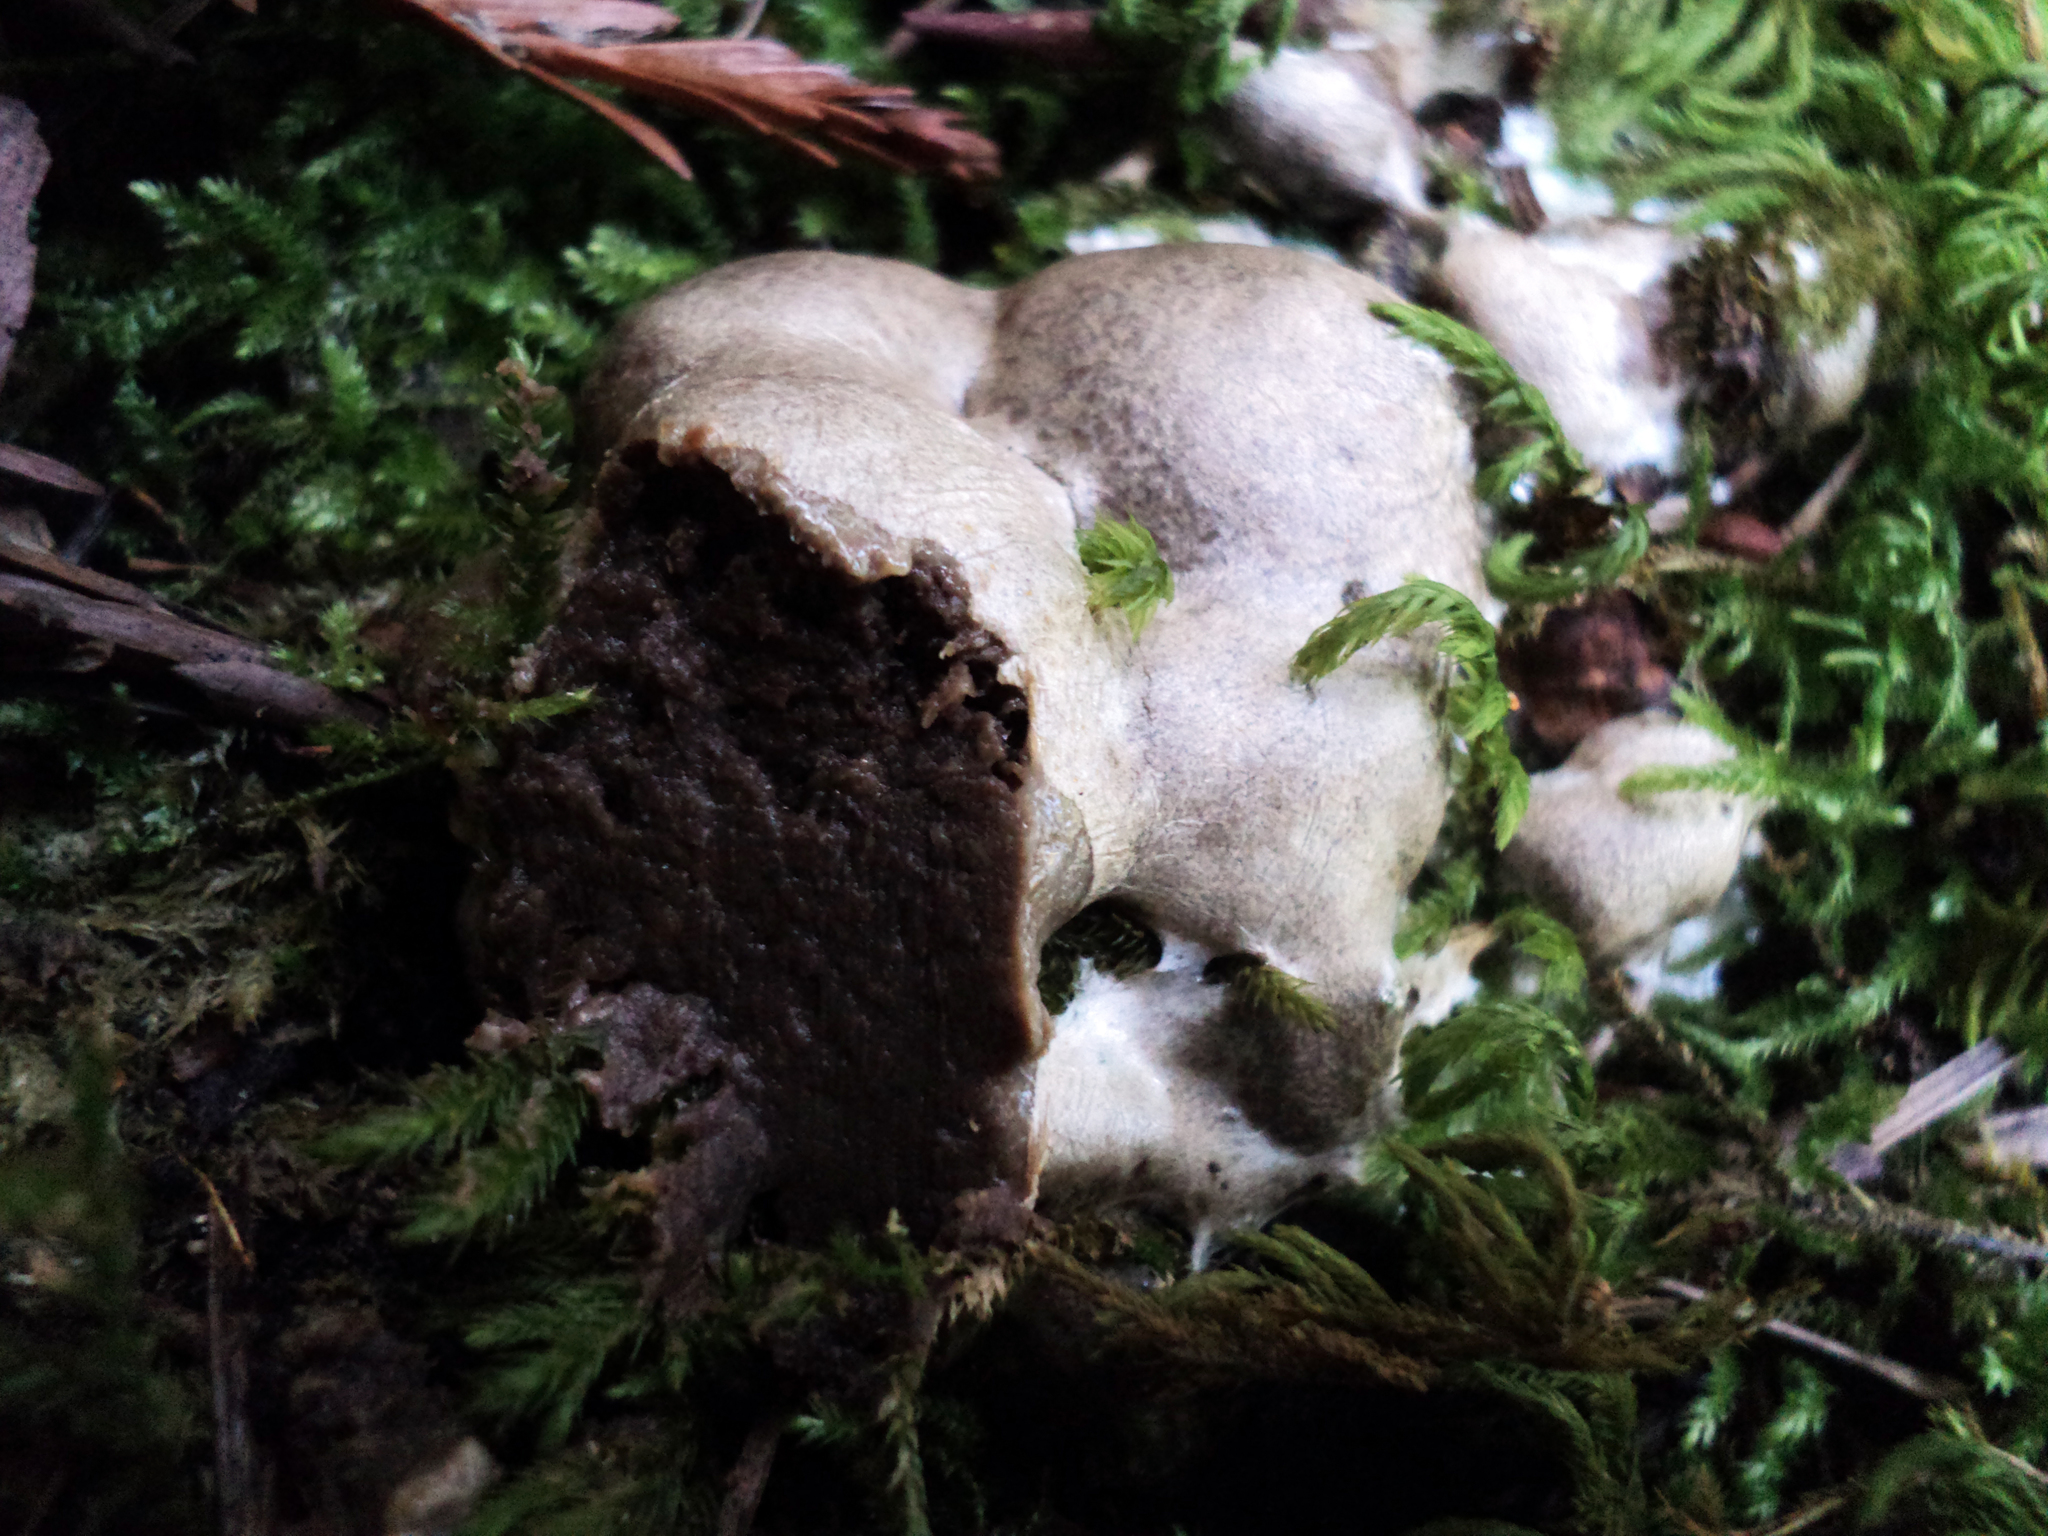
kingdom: Protozoa
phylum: Mycetozoa
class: Myxomycetes
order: Cribrariales
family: Tubiferaceae
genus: Reticularia
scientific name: Reticularia lycoperdon
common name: False puffball
